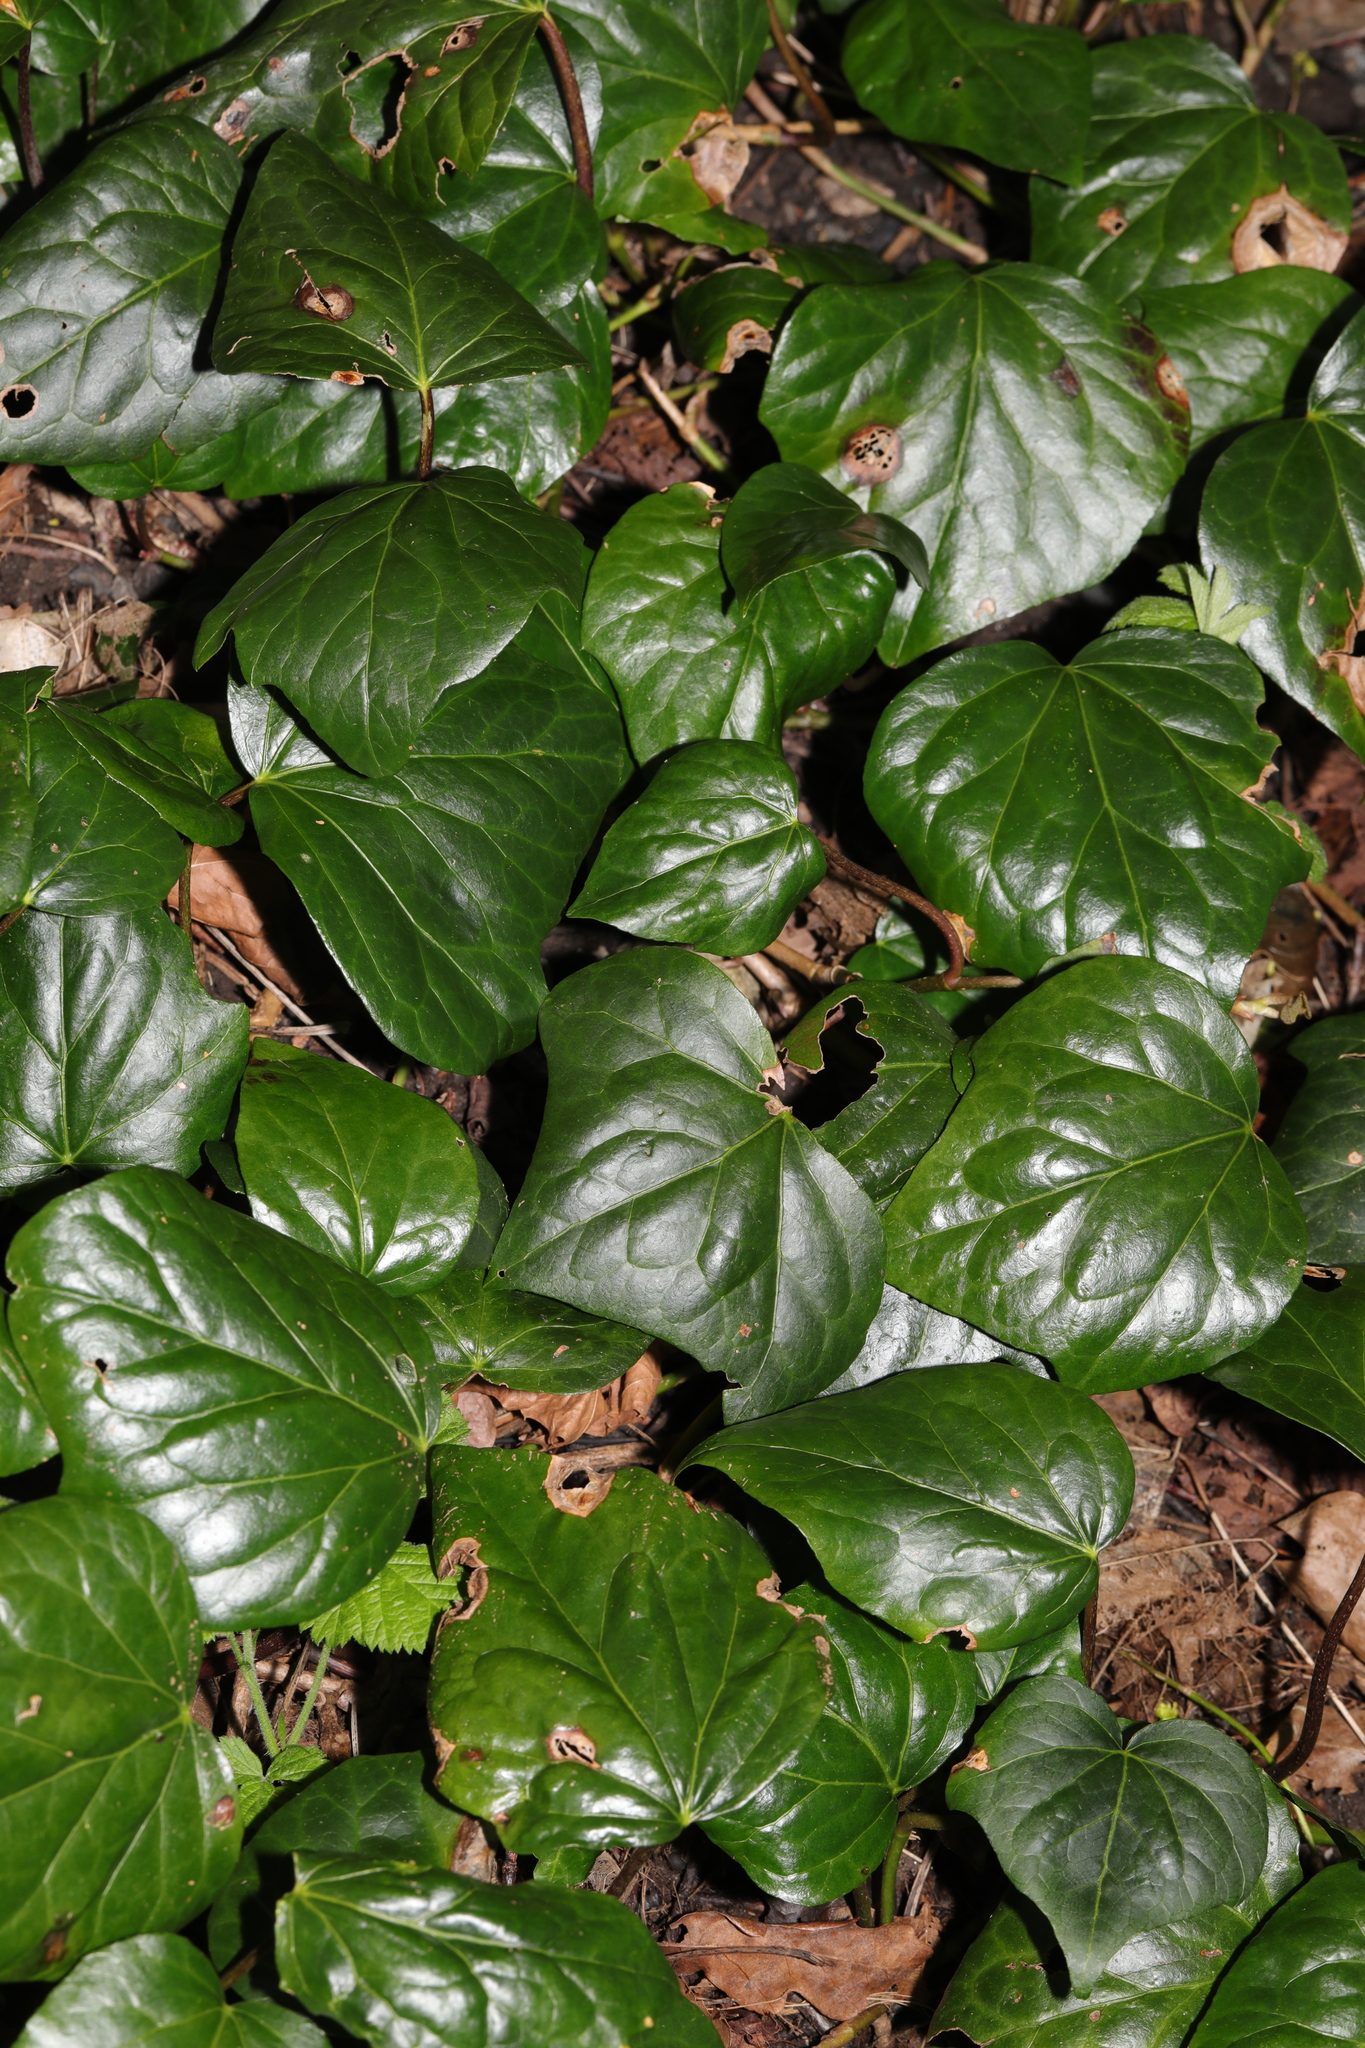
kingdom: Plantae
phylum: Tracheophyta
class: Magnoliopsida
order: Apiales
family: Araliaceae
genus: Hedera
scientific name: Hedera colchica
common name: Persian ivy
